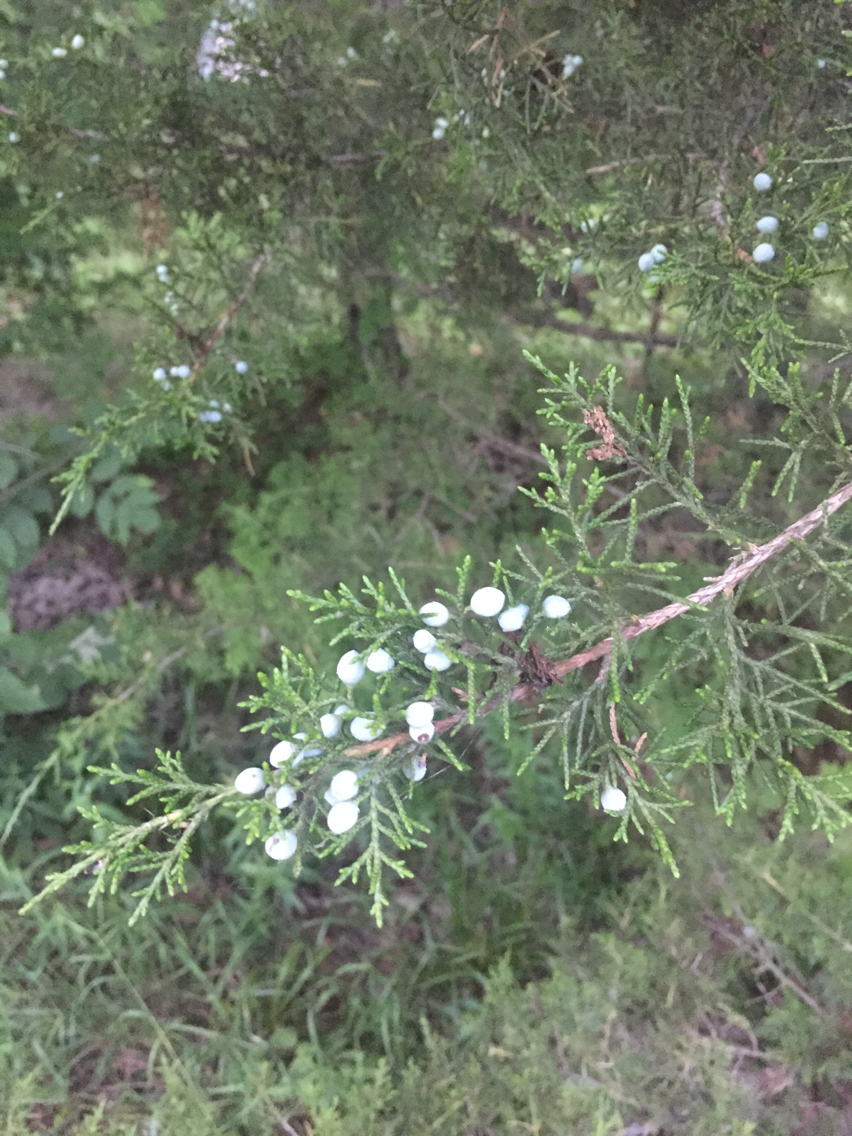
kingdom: Plantae
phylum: Tracheophyta
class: Pinopsida
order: Pinales
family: Cupressaceae
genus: Juniperus
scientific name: Juniperus virginiana
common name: Red juniper
